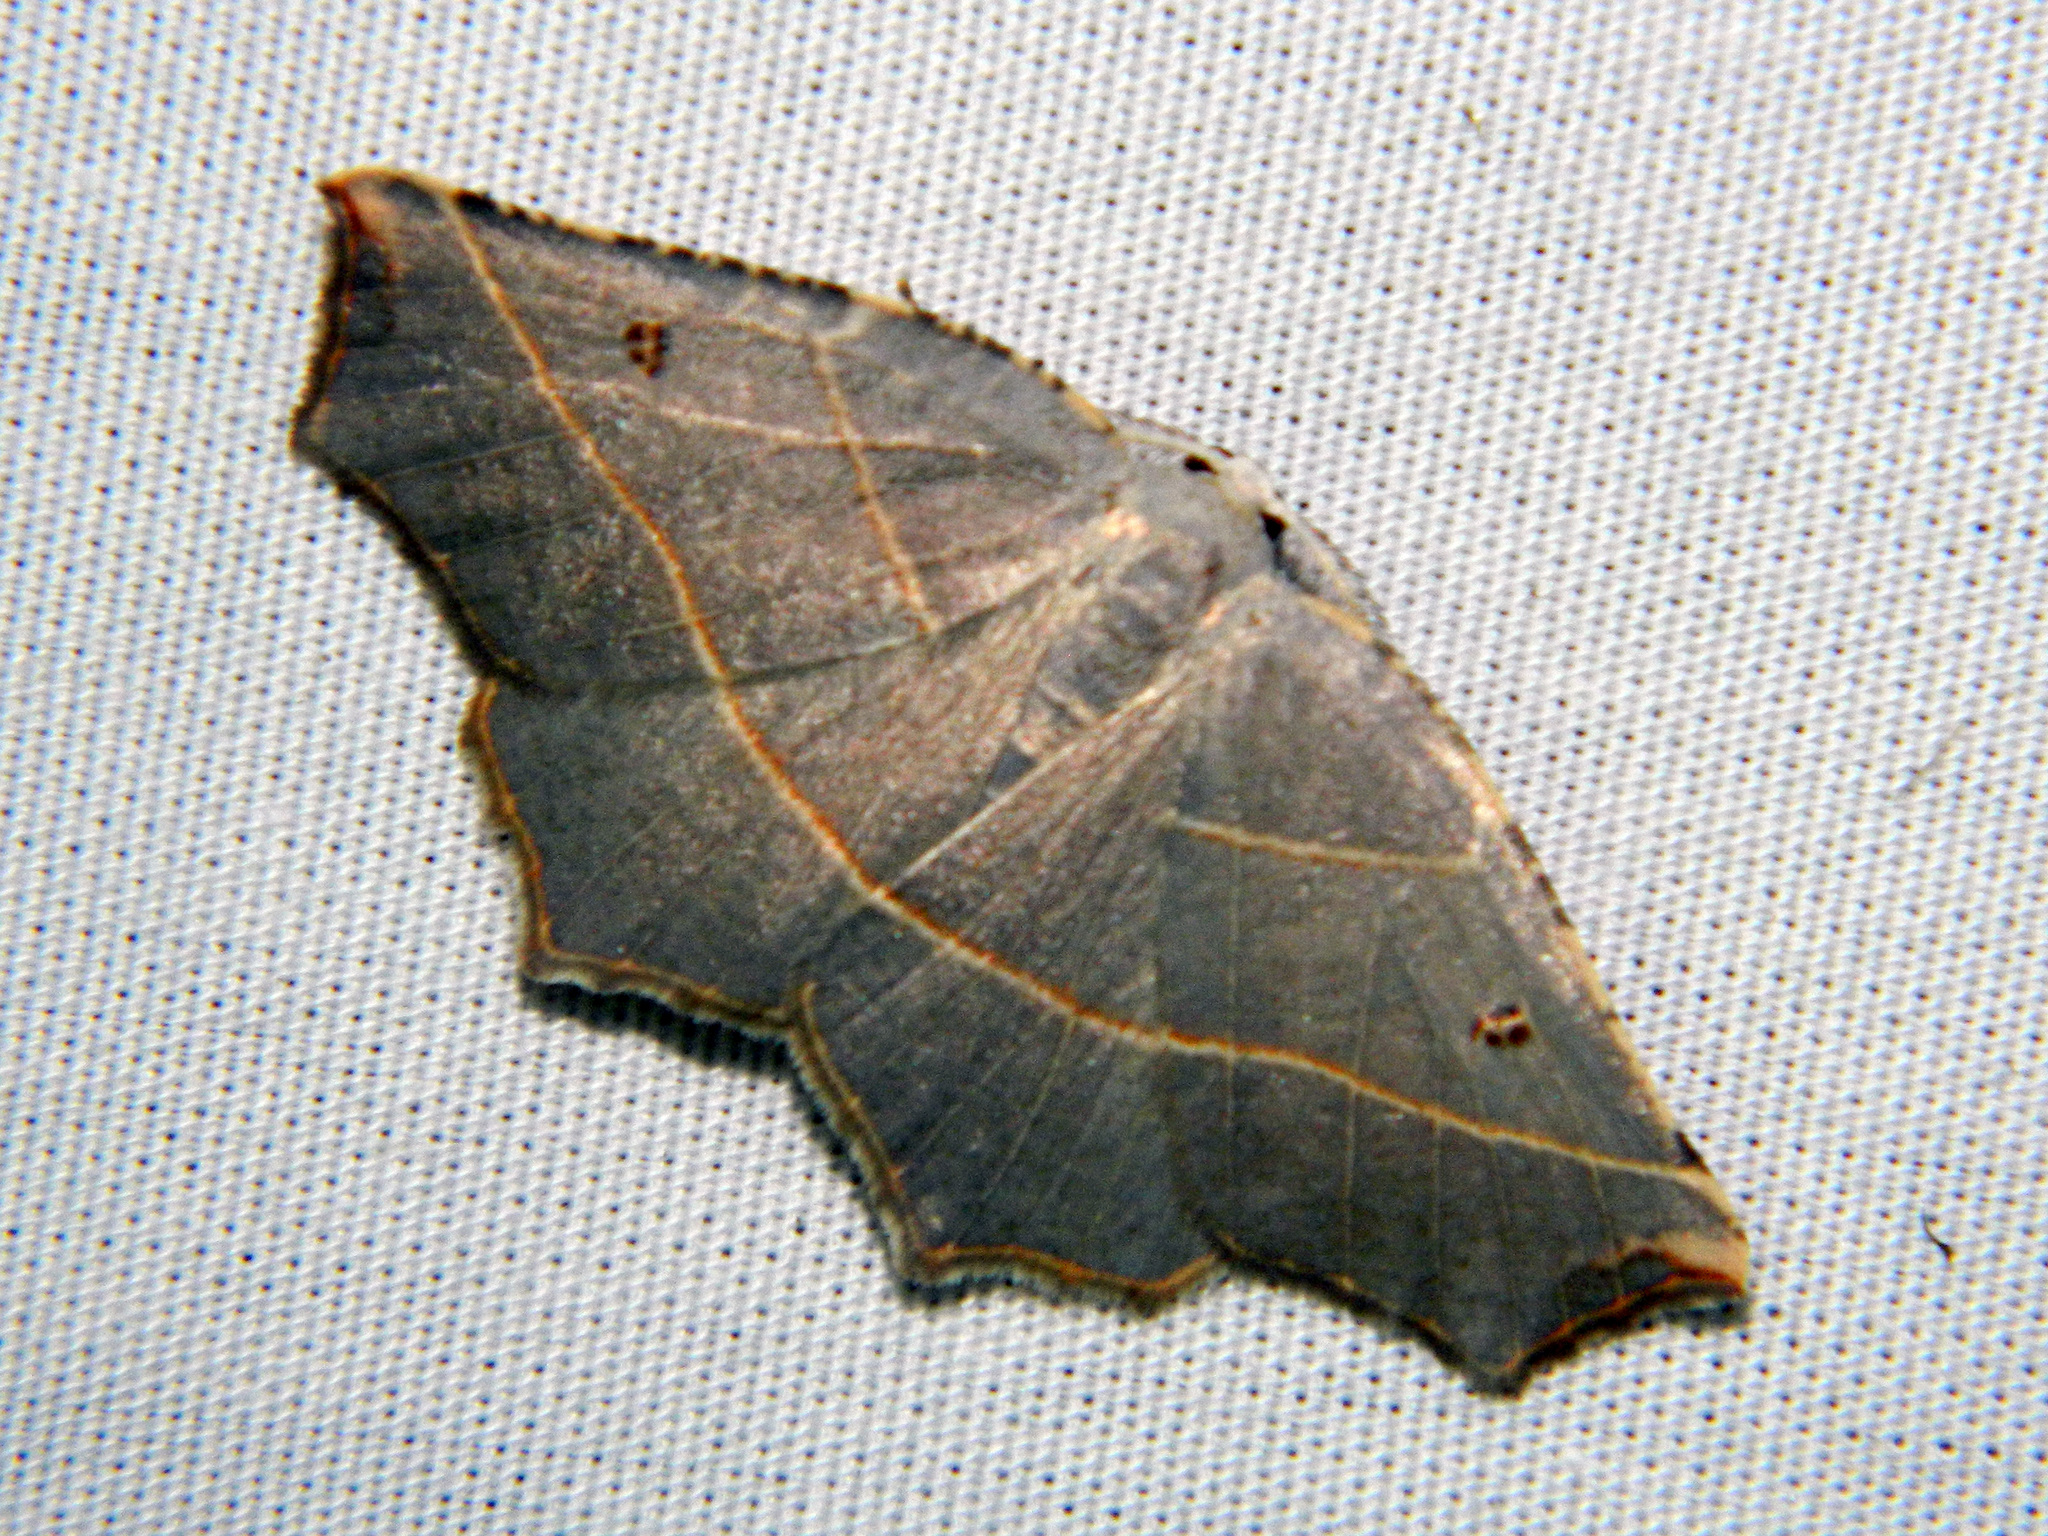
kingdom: Animalia
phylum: Arthropoda
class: Insecta
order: Lepidoptera
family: Geometridae
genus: Metanema
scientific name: Metanema inatomaria
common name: Pale metanema
